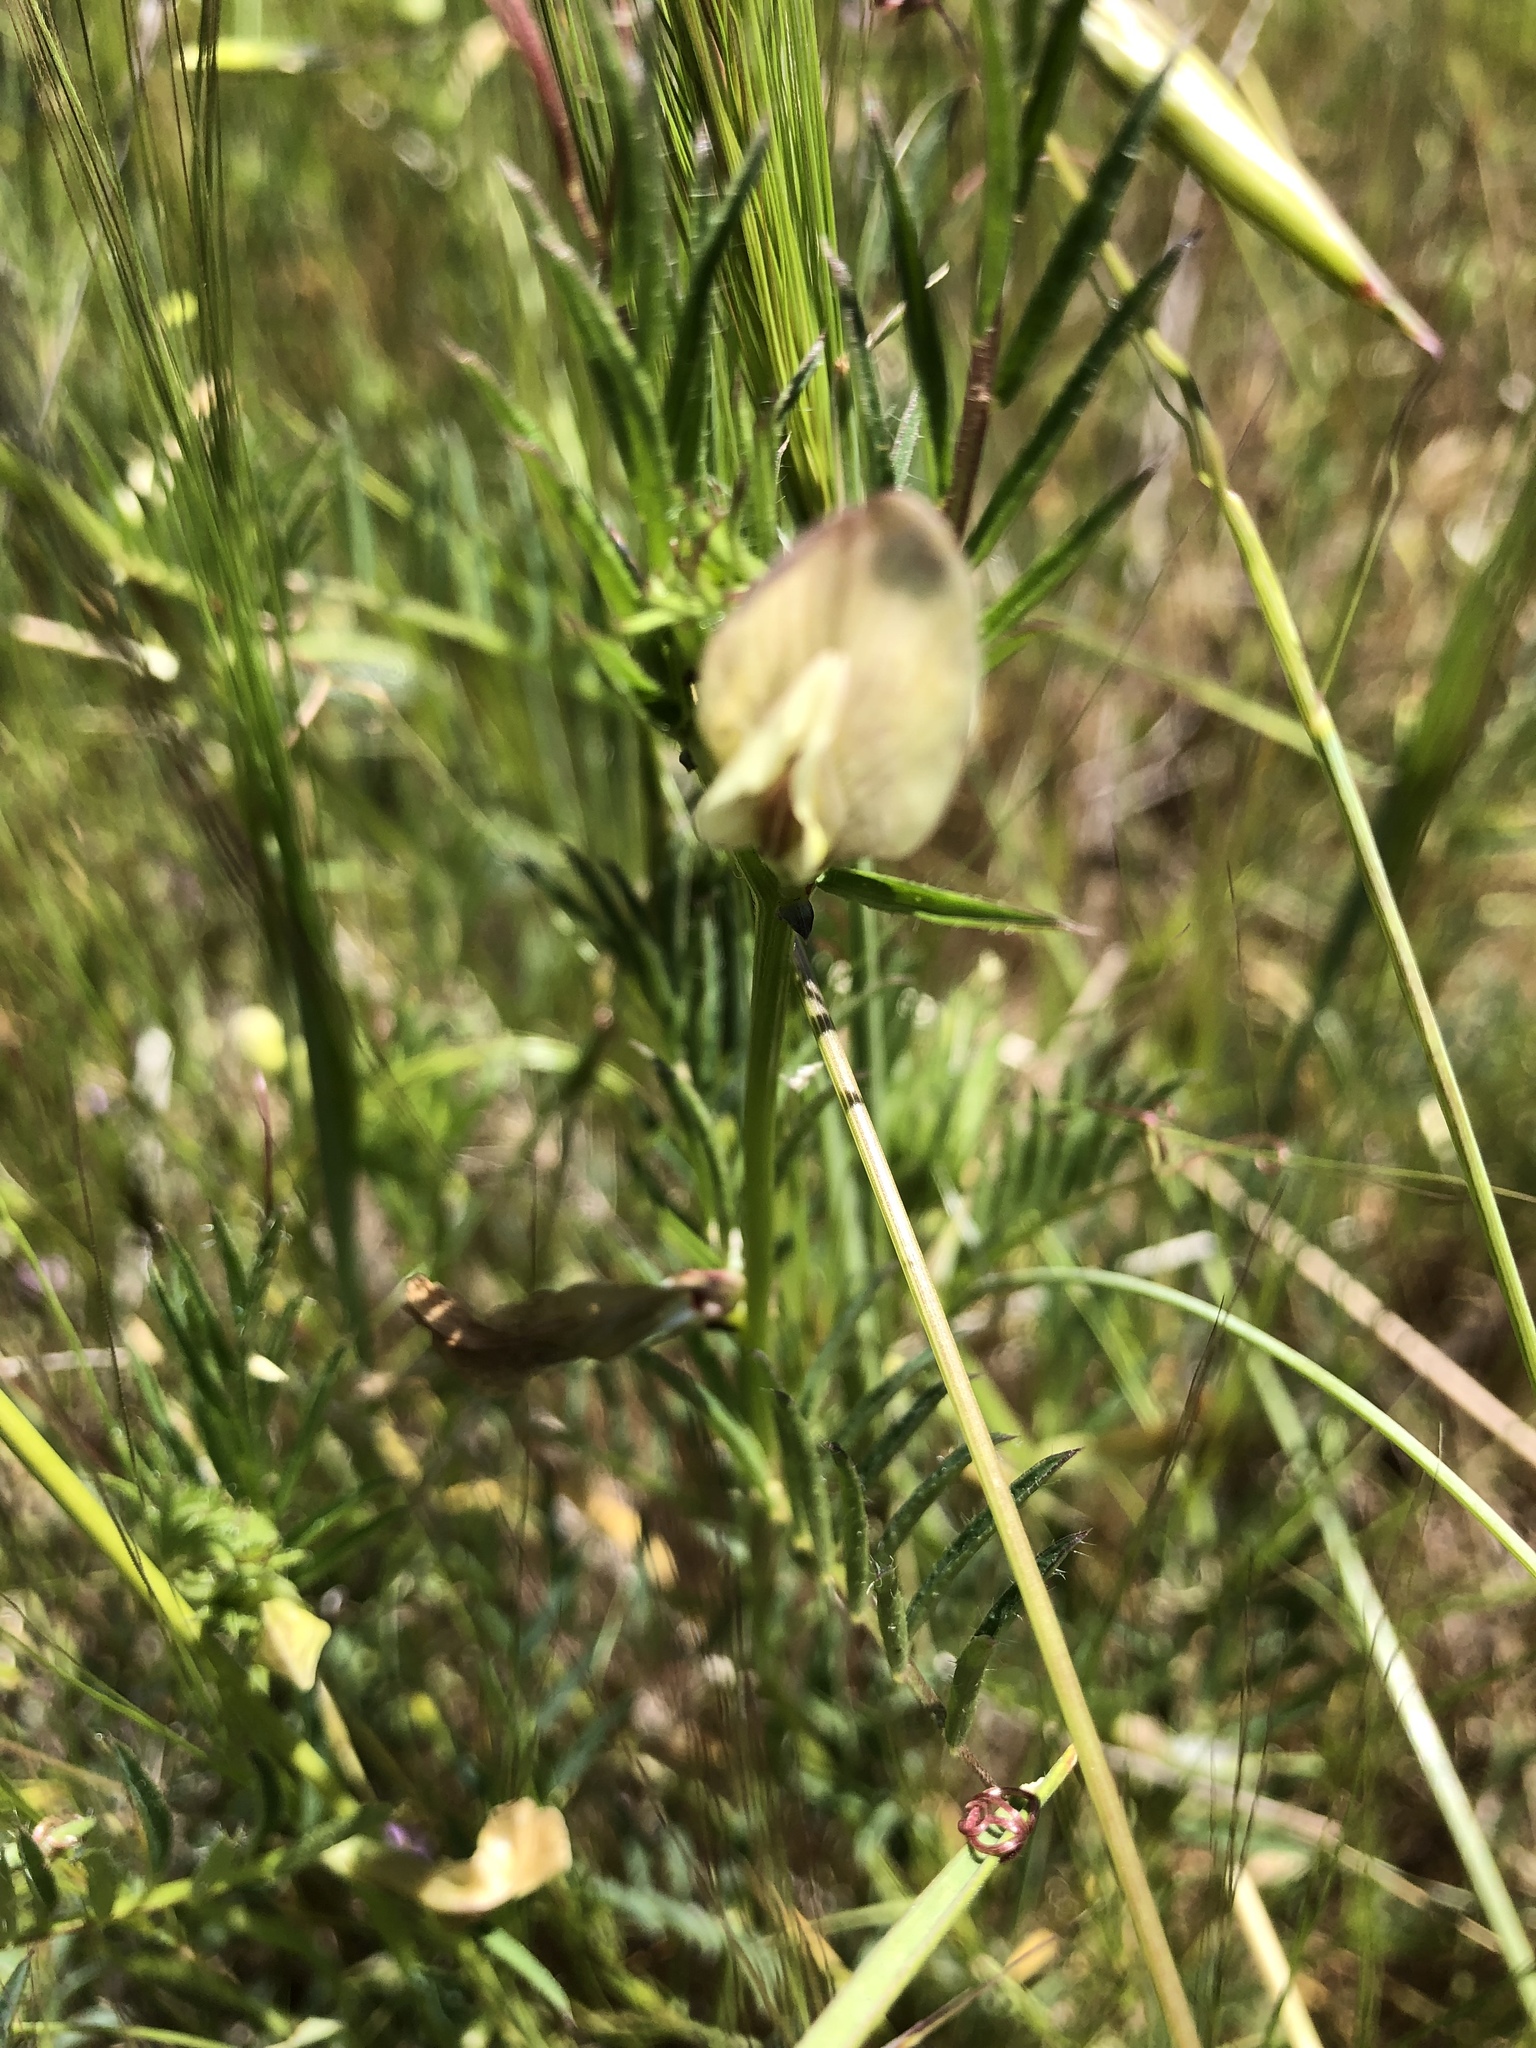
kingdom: Plantae
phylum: Tracheophyta
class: Magnoliopsida
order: Fabales
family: Fabaceae
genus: Vicia
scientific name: Vicia lutea
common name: Smooth yellow vetch
